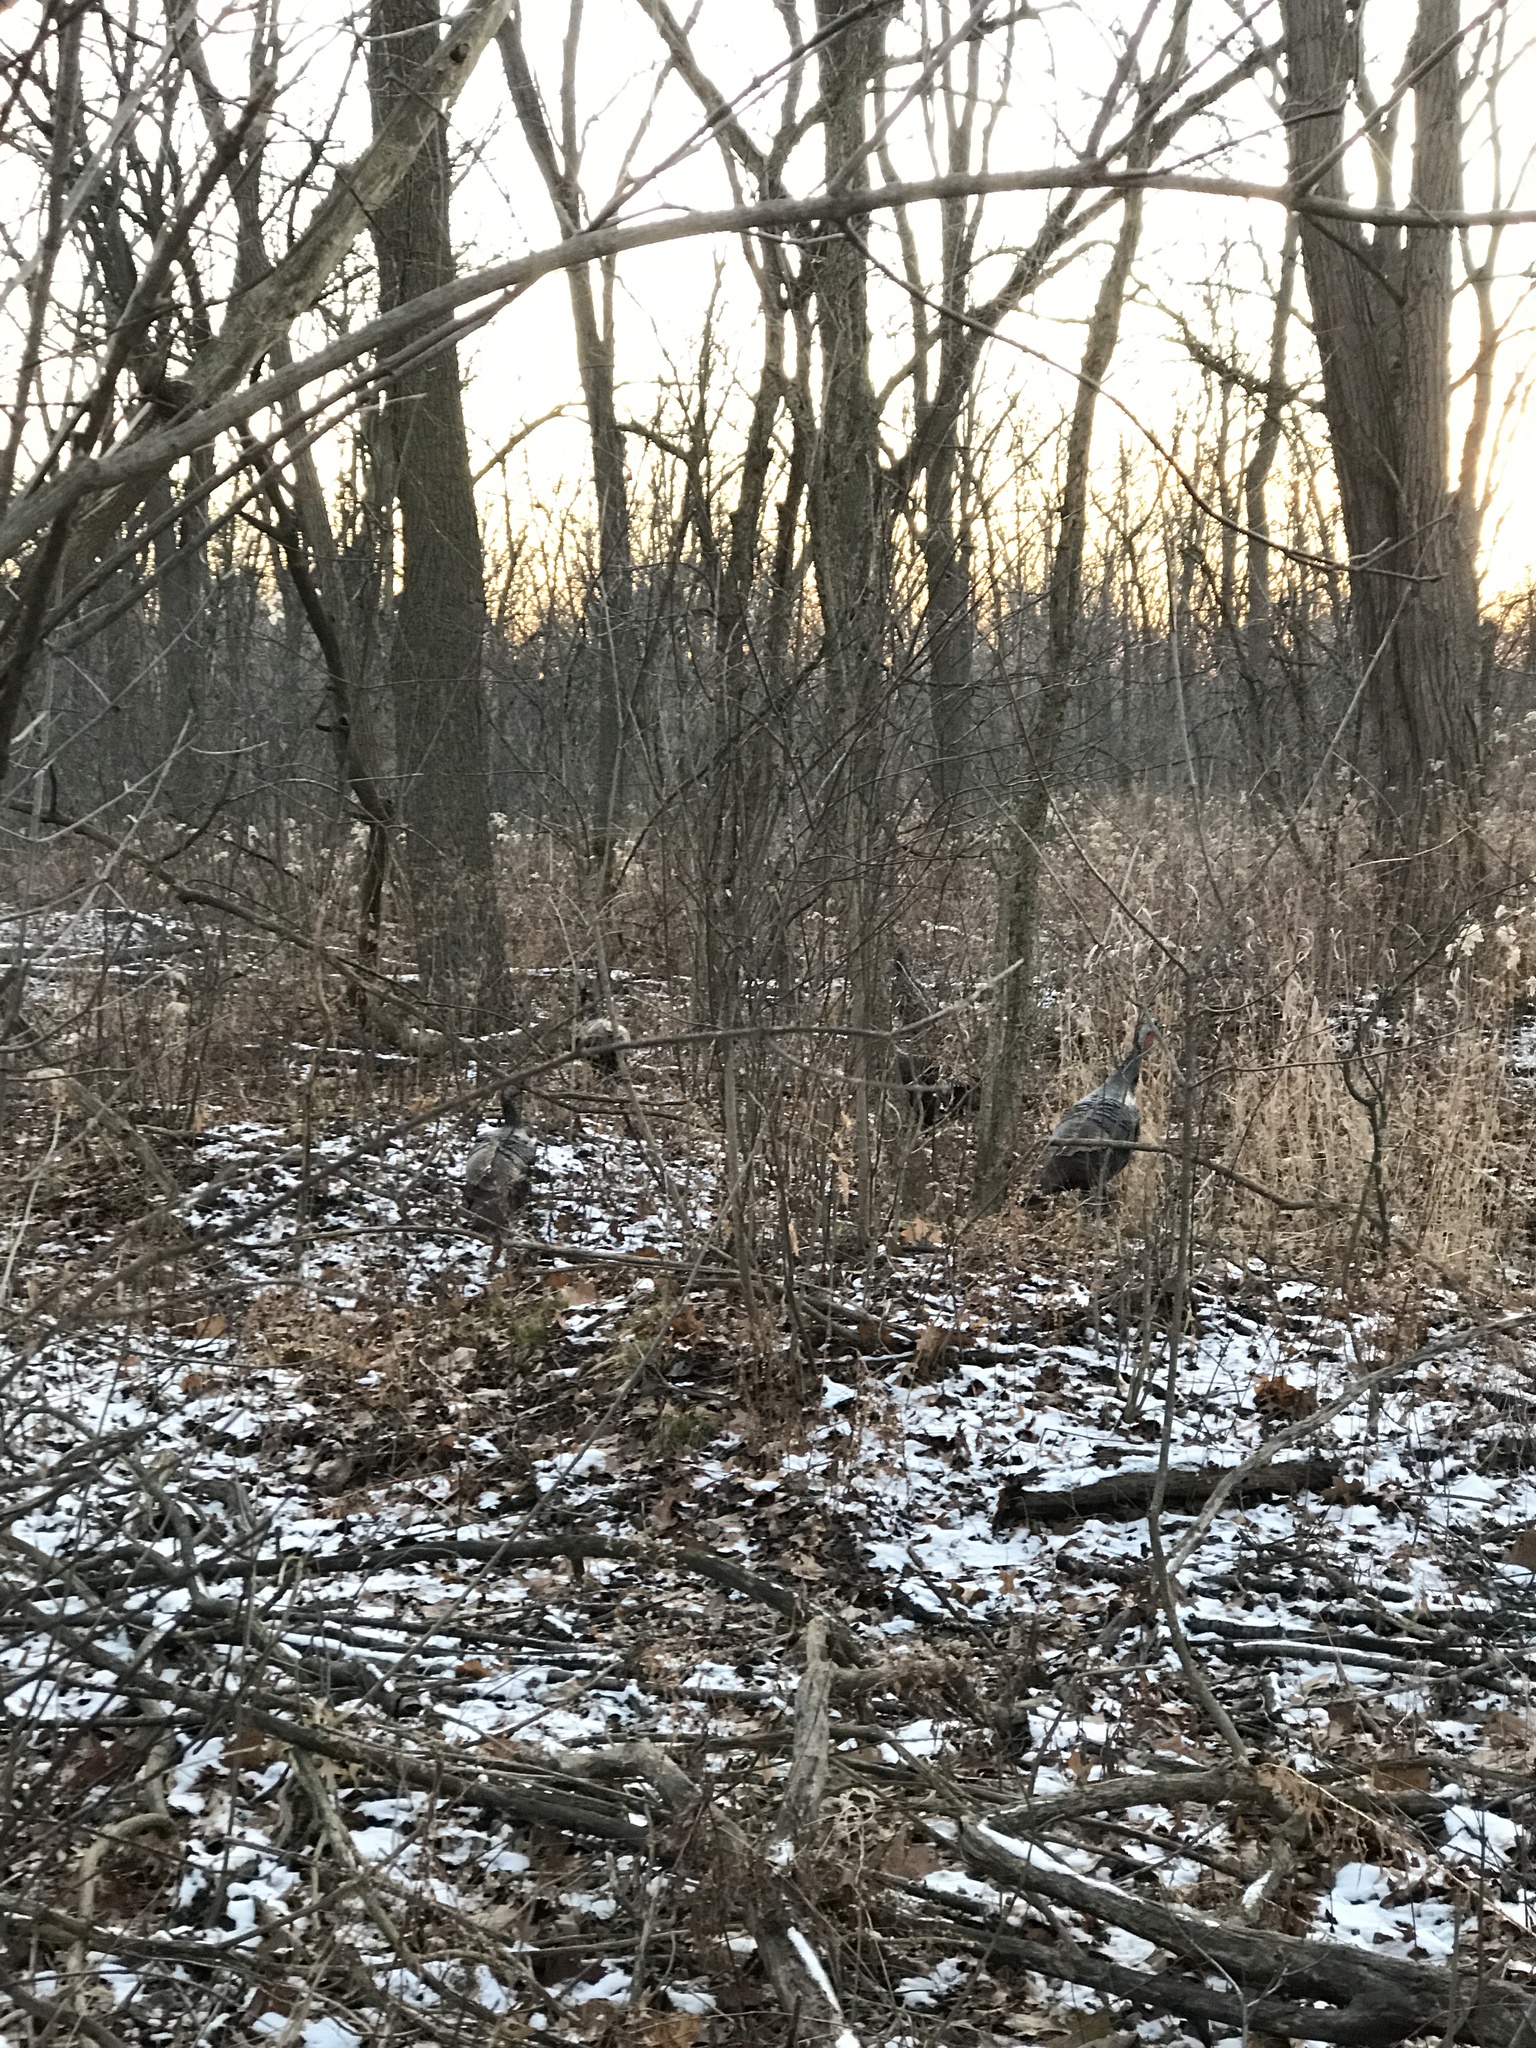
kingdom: Animalia
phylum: Chordata
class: Aves
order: Galliformes
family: Phasianidae
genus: Meleagris
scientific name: Meleagris gallopavo
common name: Wild turkey
